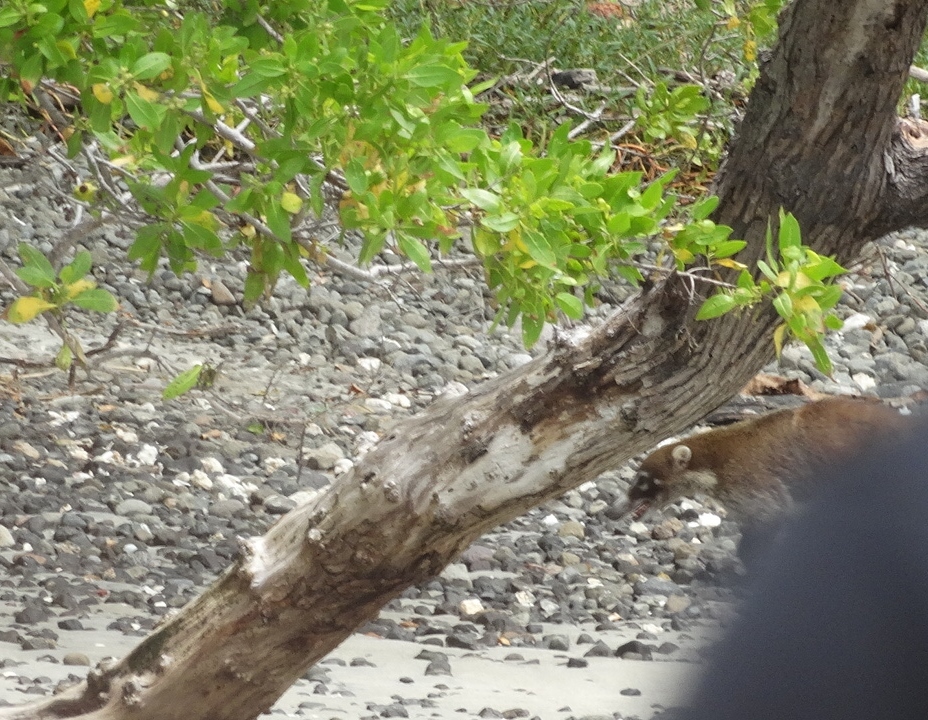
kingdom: Animalia
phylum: Chordata
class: Mammalia
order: Carnivora
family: Procyonidae
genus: Nasua
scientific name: Nasua narica
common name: White-nosed coati
